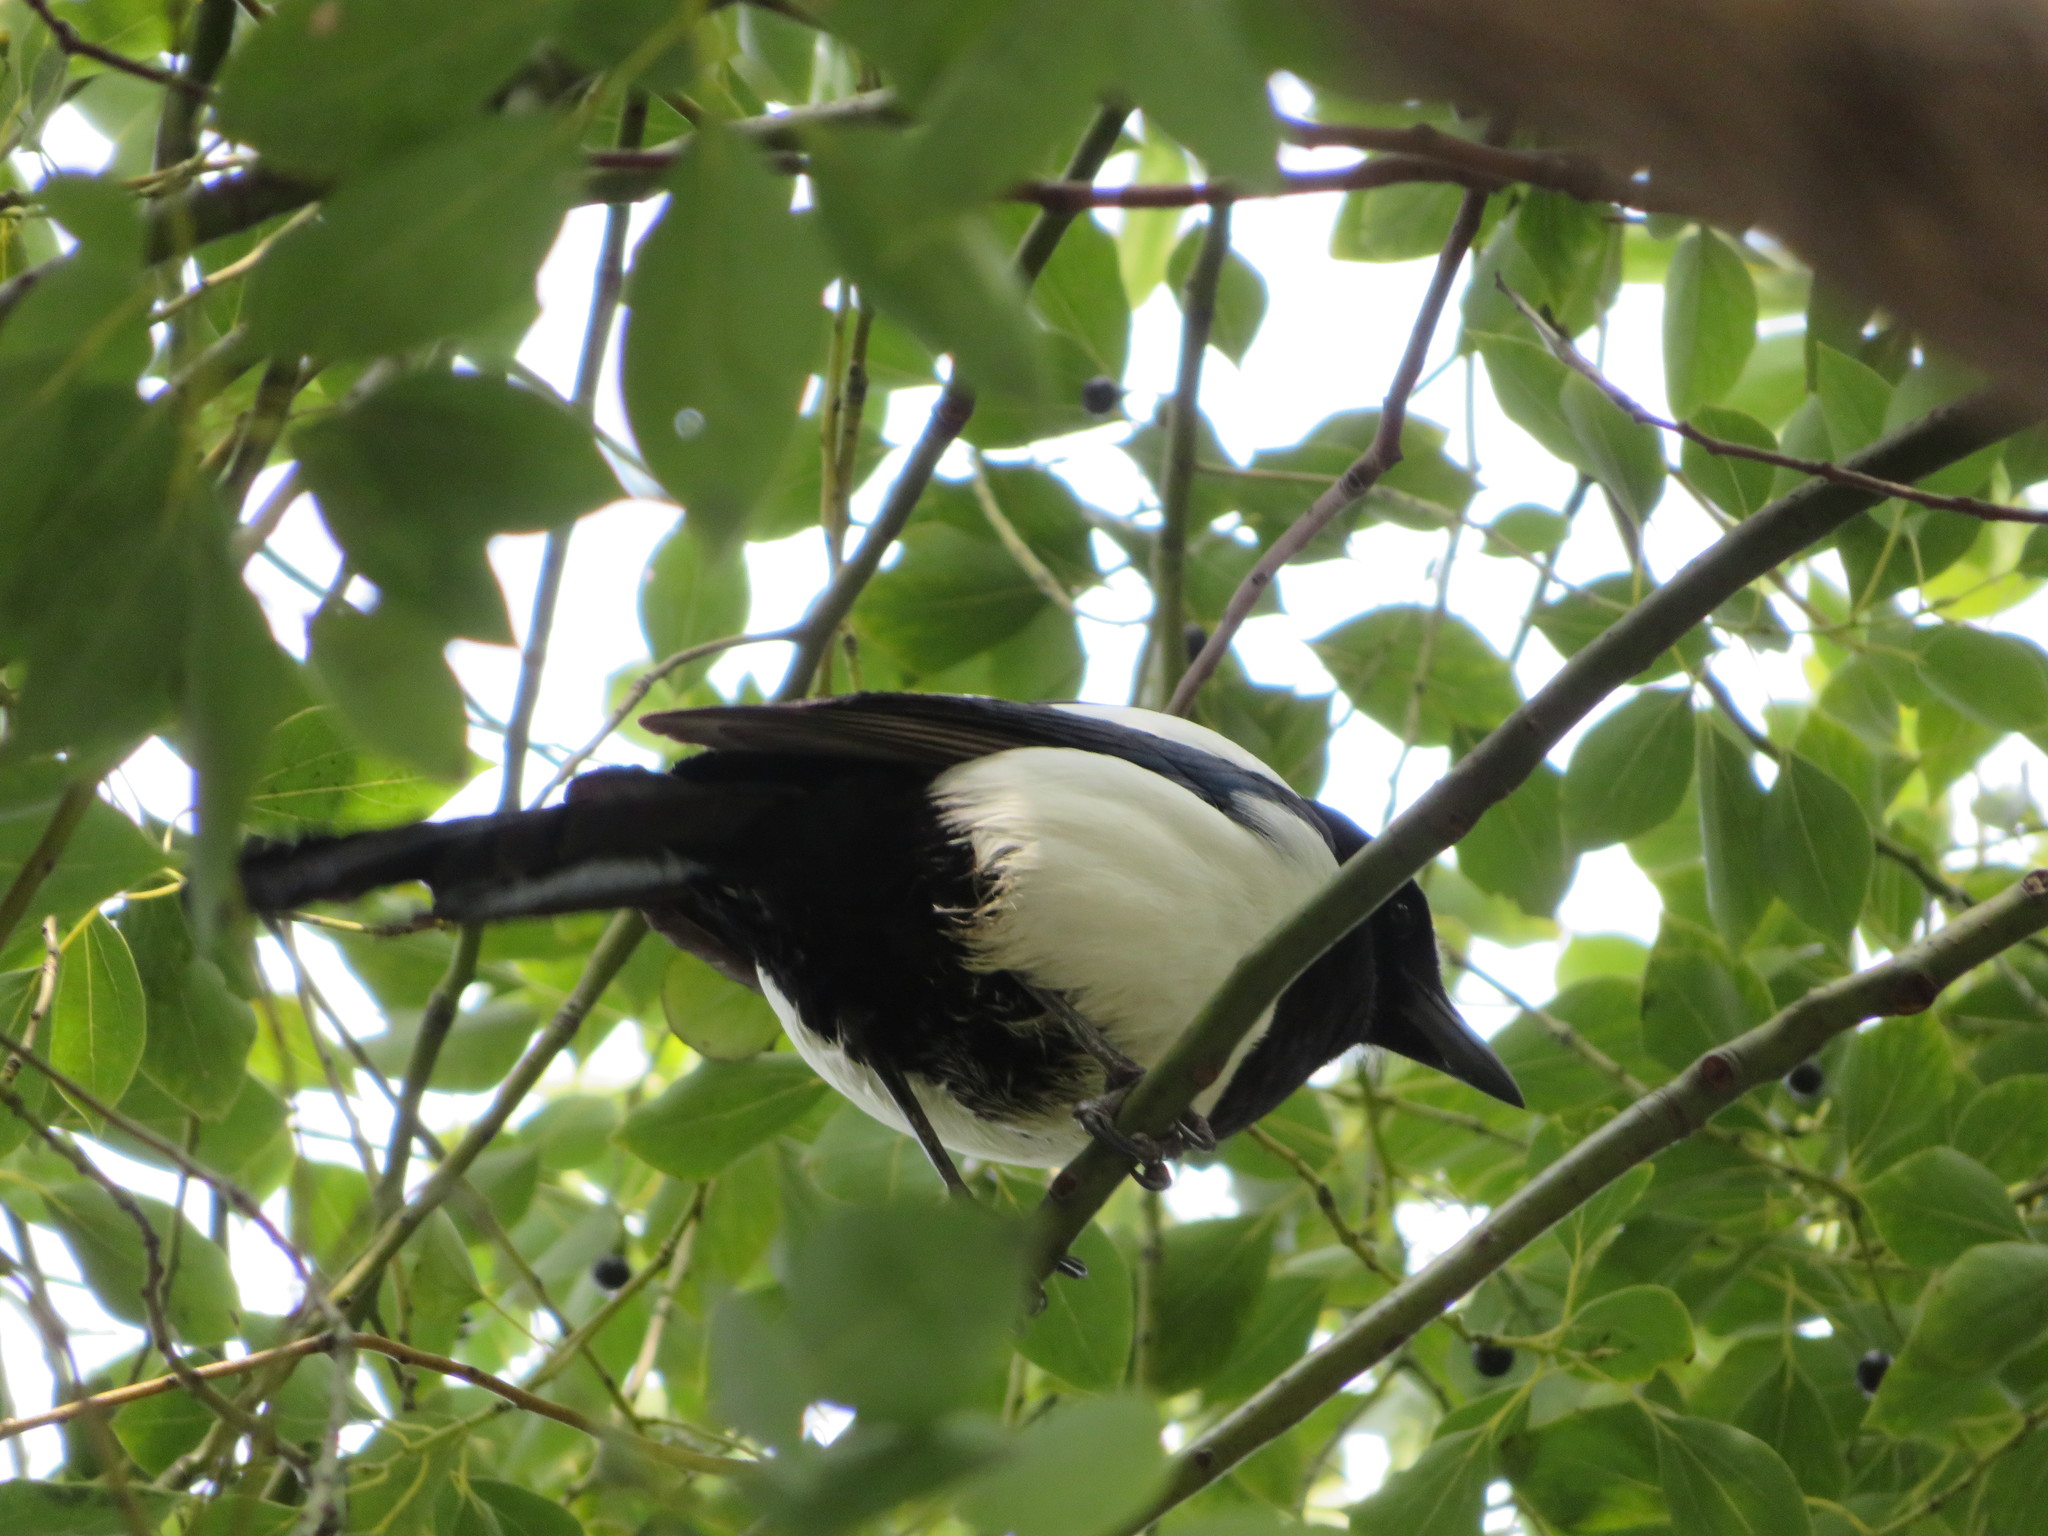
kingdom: Animalia
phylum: Chordata
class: Aves
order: Passeriformes
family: Corvidae
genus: Pica
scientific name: Pica serica
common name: Oriental magpie
